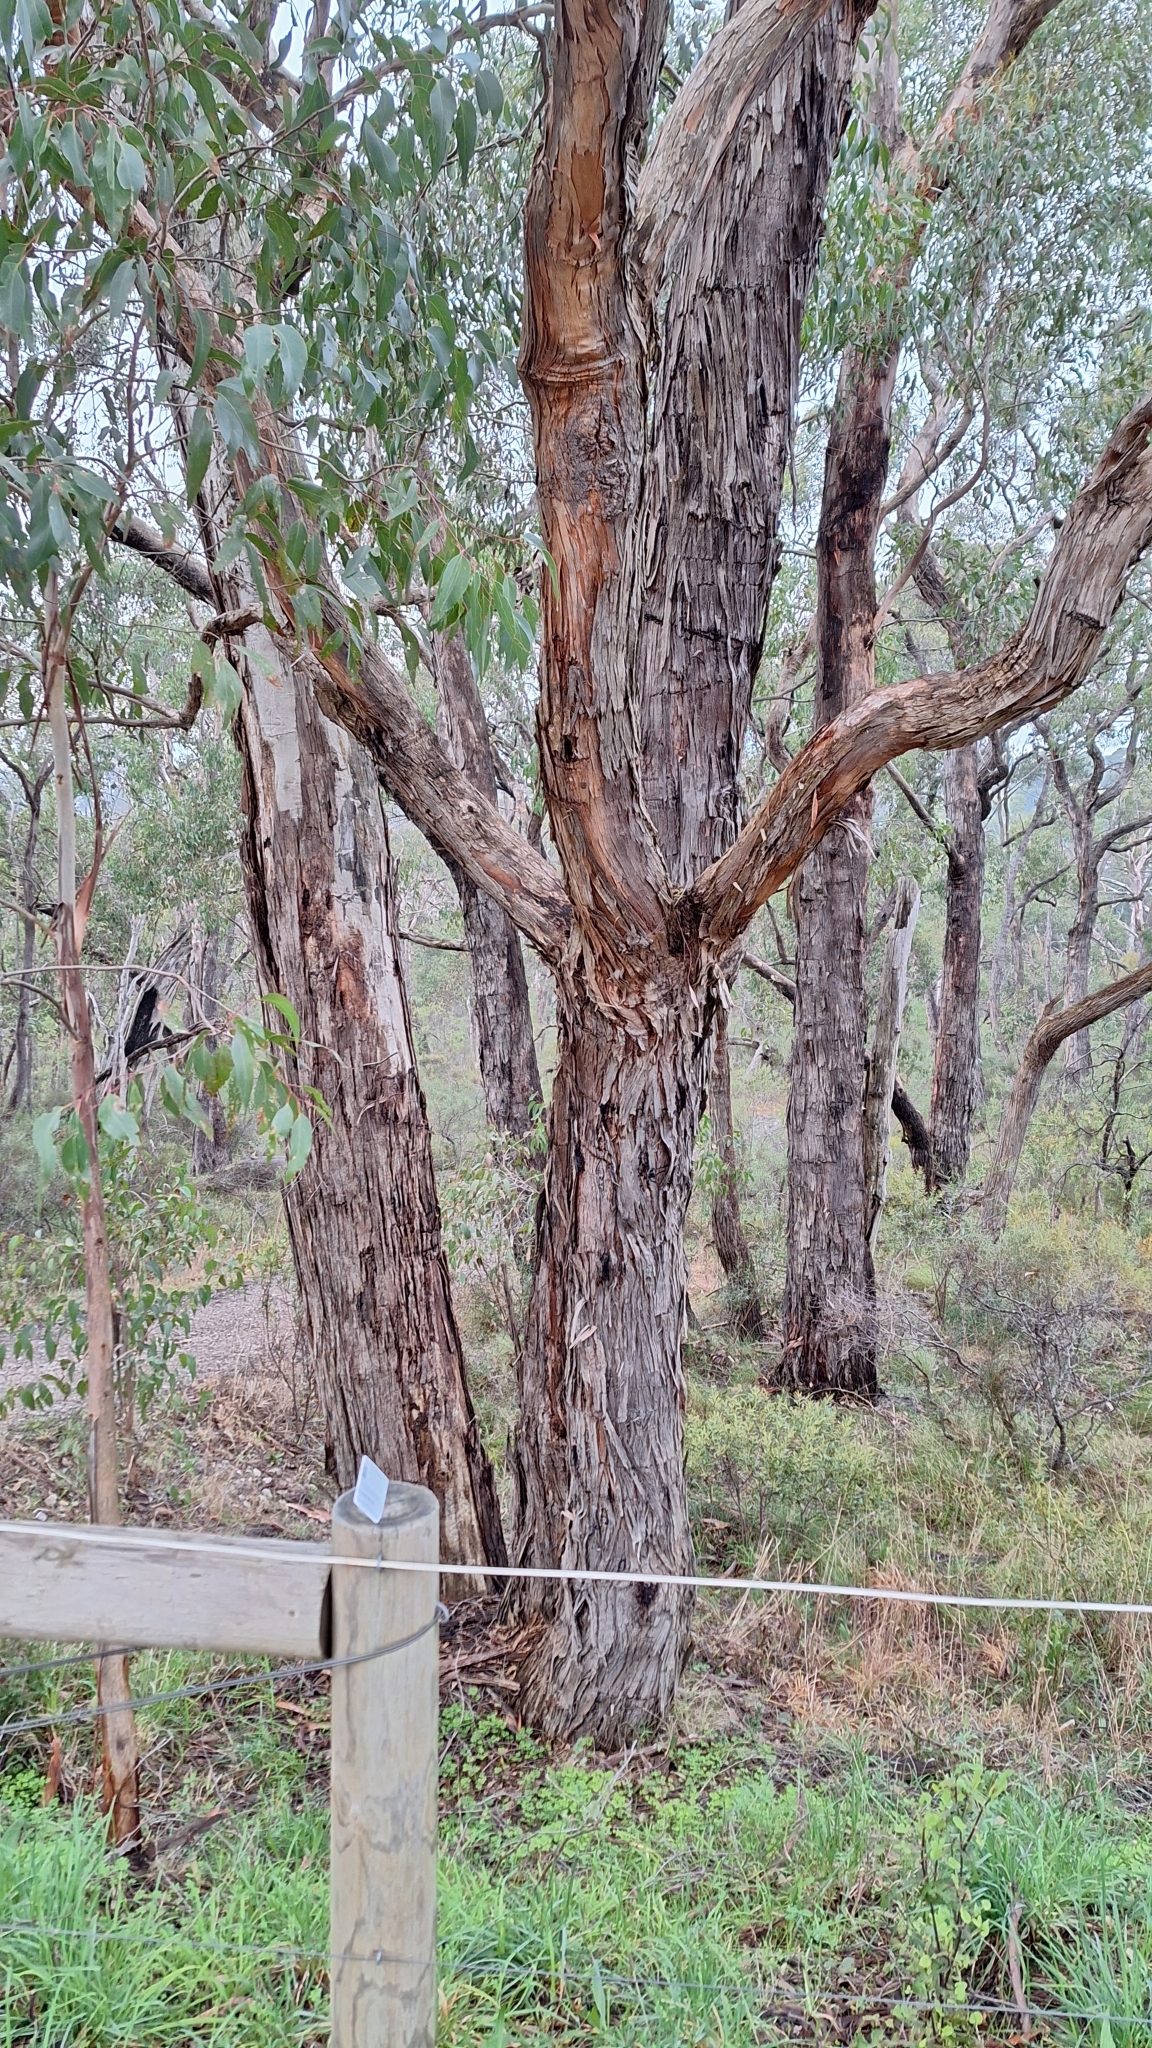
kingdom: Plantae
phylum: Tracheophyta
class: Magnoliopsida
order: Myrtales
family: Myrtaceae
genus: Eucalyptus
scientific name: Eucalyptus obliqua
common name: Messmate stringybark
